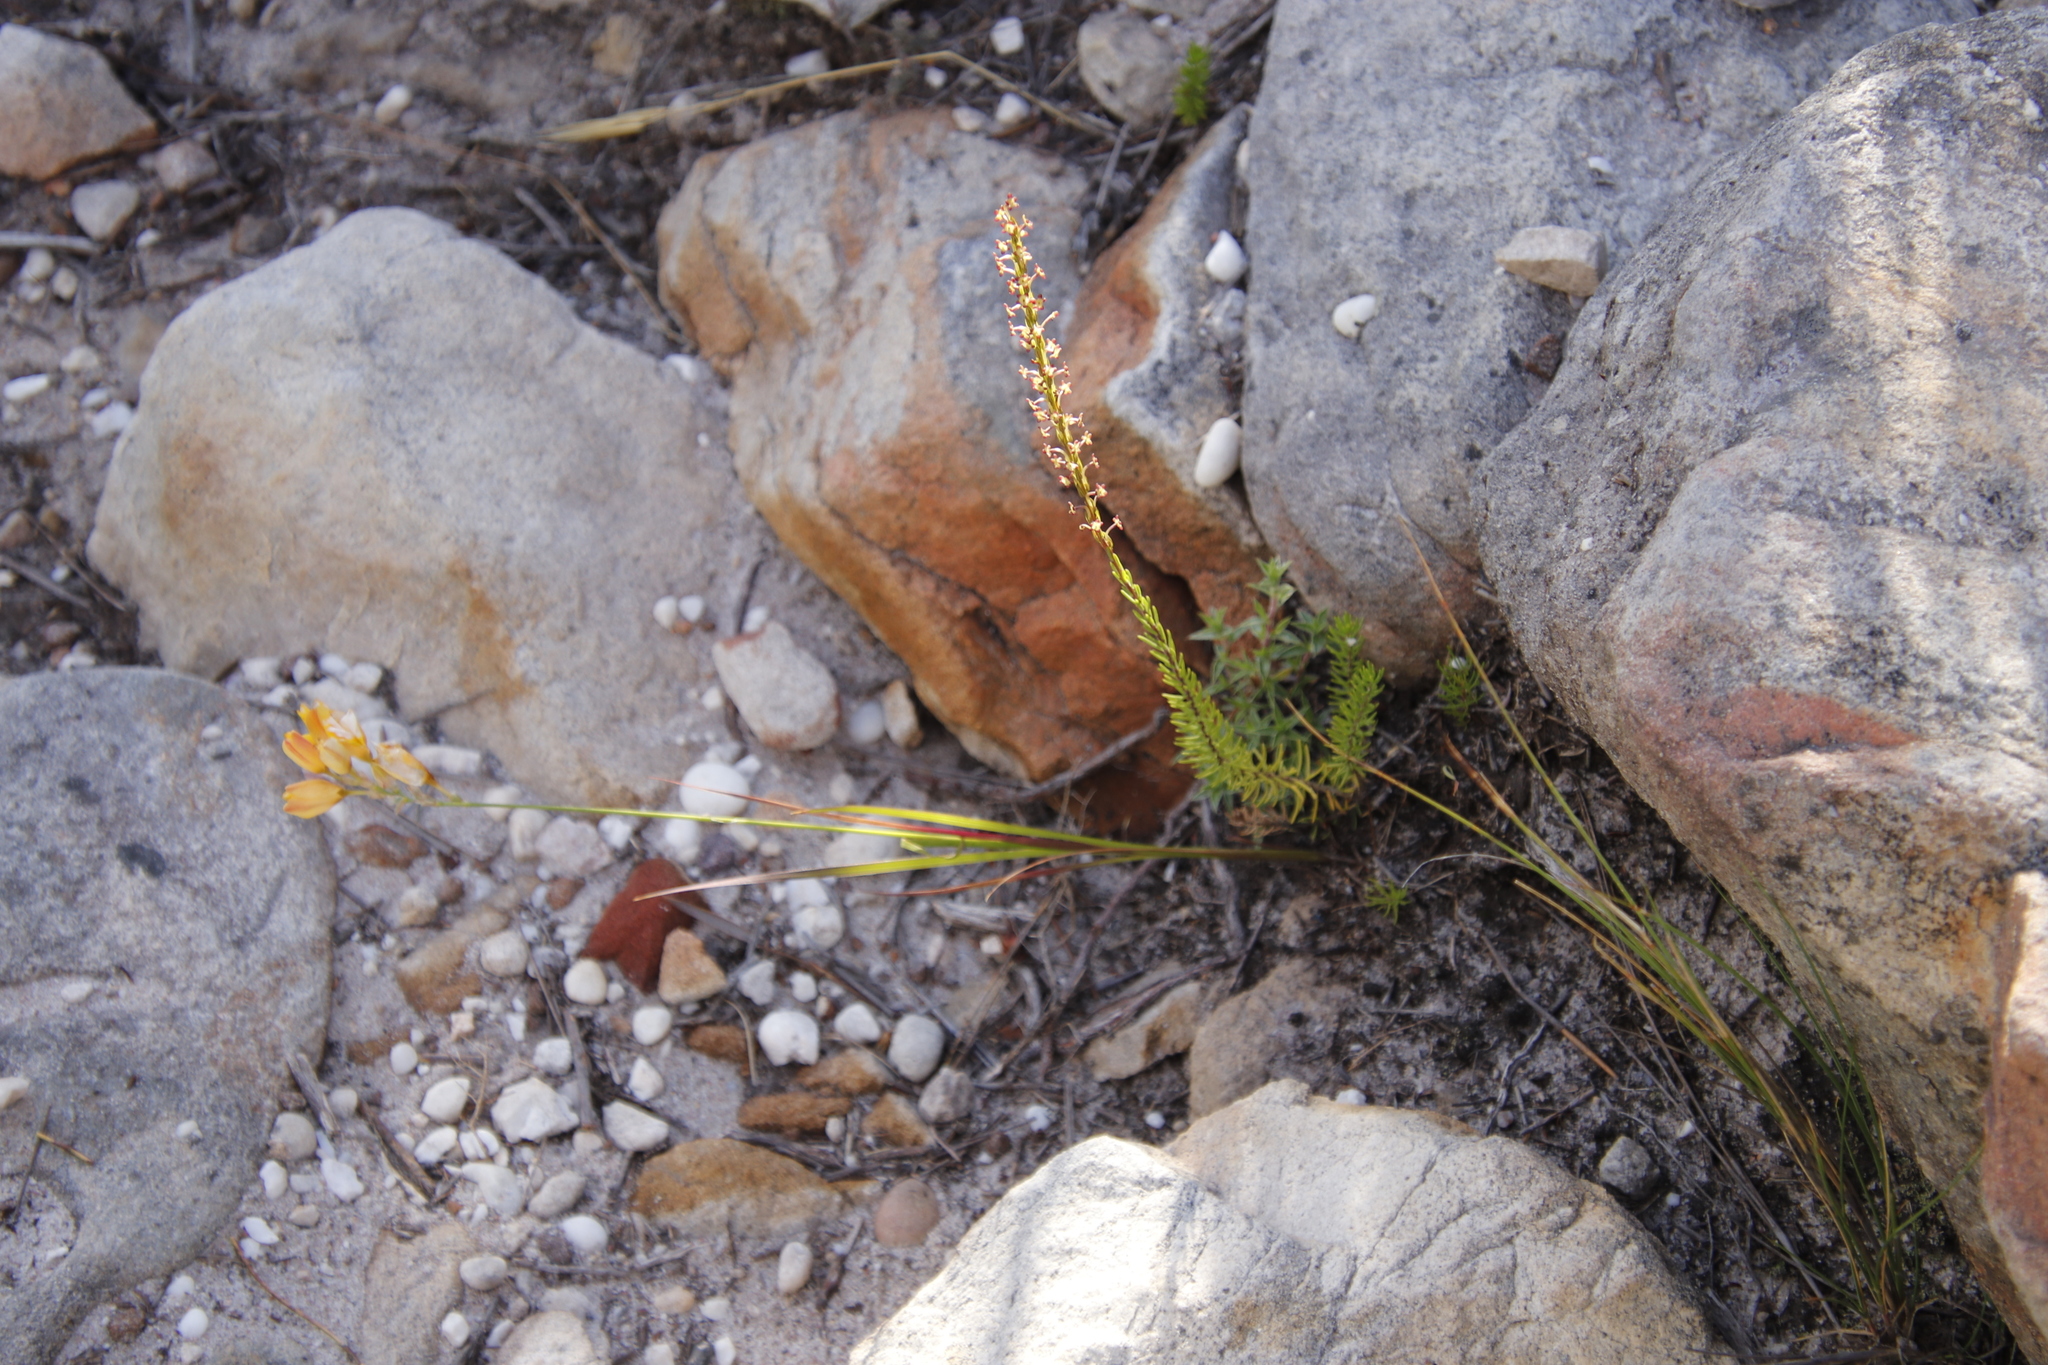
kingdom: Plantae
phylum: Tracheophyta
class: Magnoliopsida
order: Lamiales
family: Scrophulariaceae
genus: Microdon
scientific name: Microdon dubius
